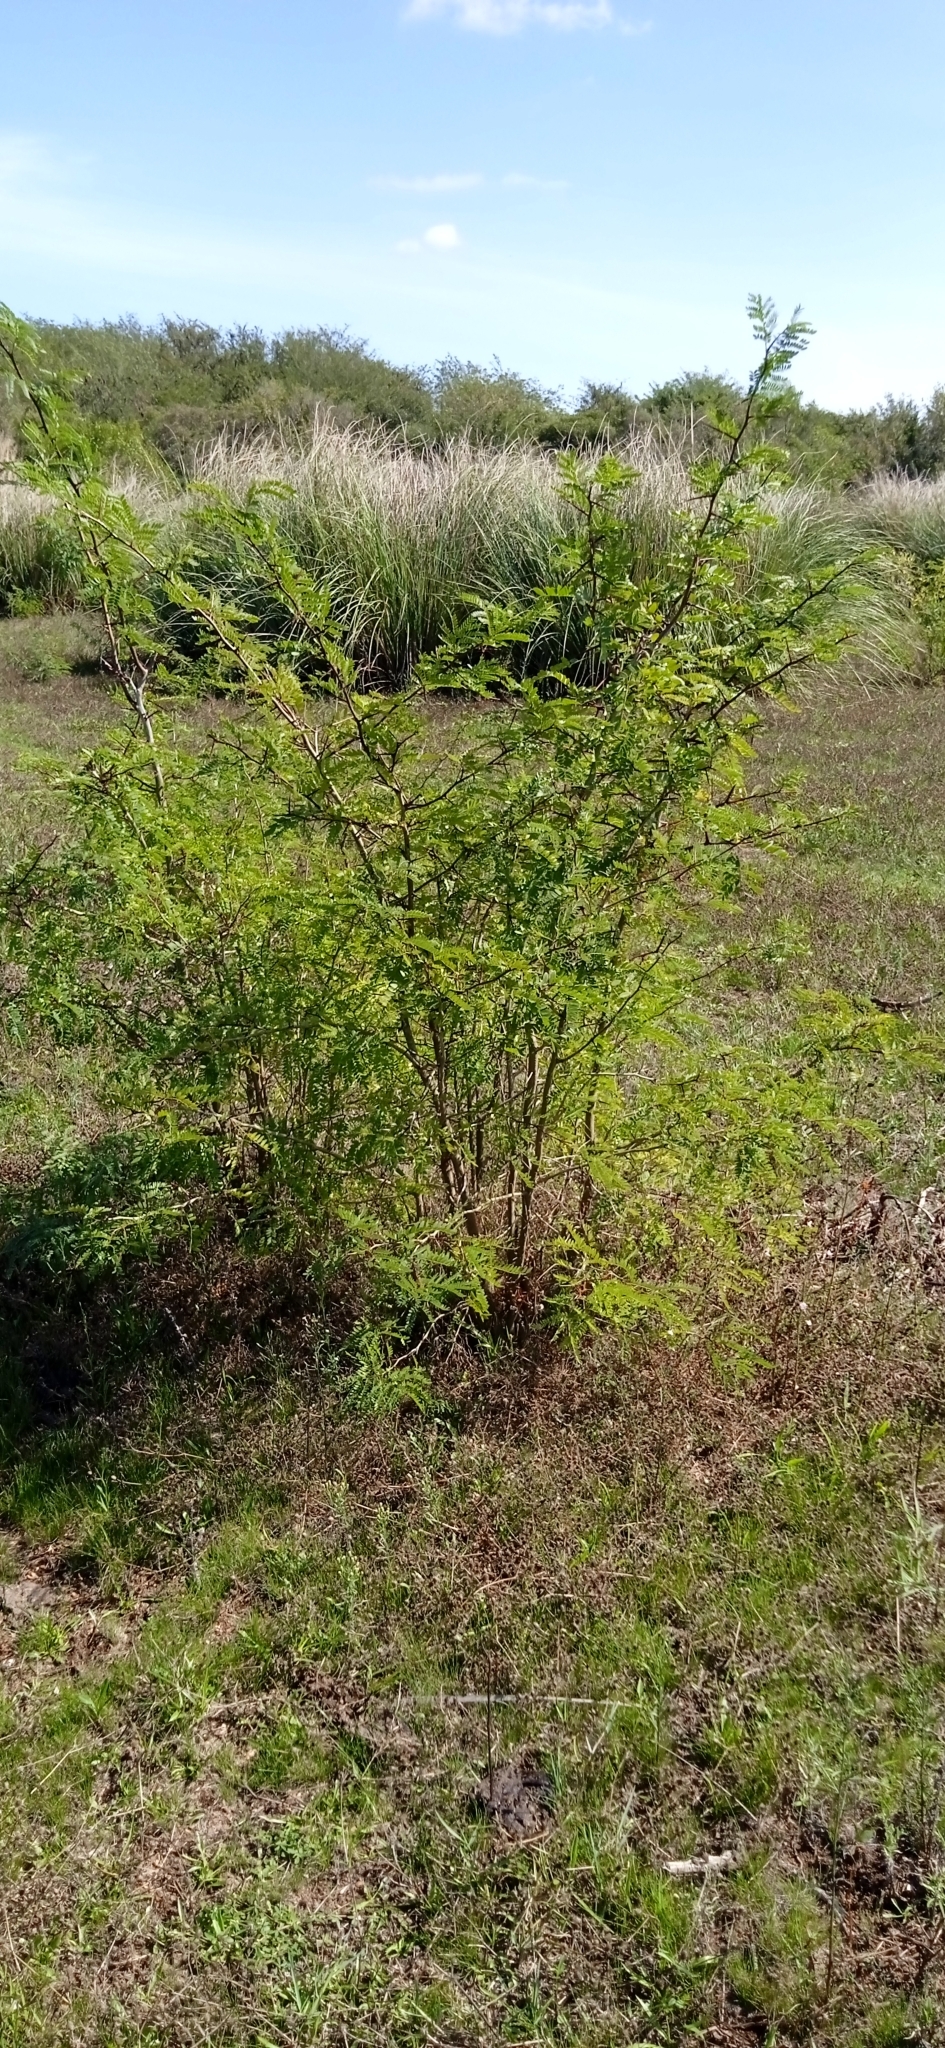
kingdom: Plantae
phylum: Tracheophyta
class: Magnoliopsida
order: Fabales
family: Fabaceae
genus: Gleditsia
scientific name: Gleditsia triacanthos
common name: Common honeylocust
